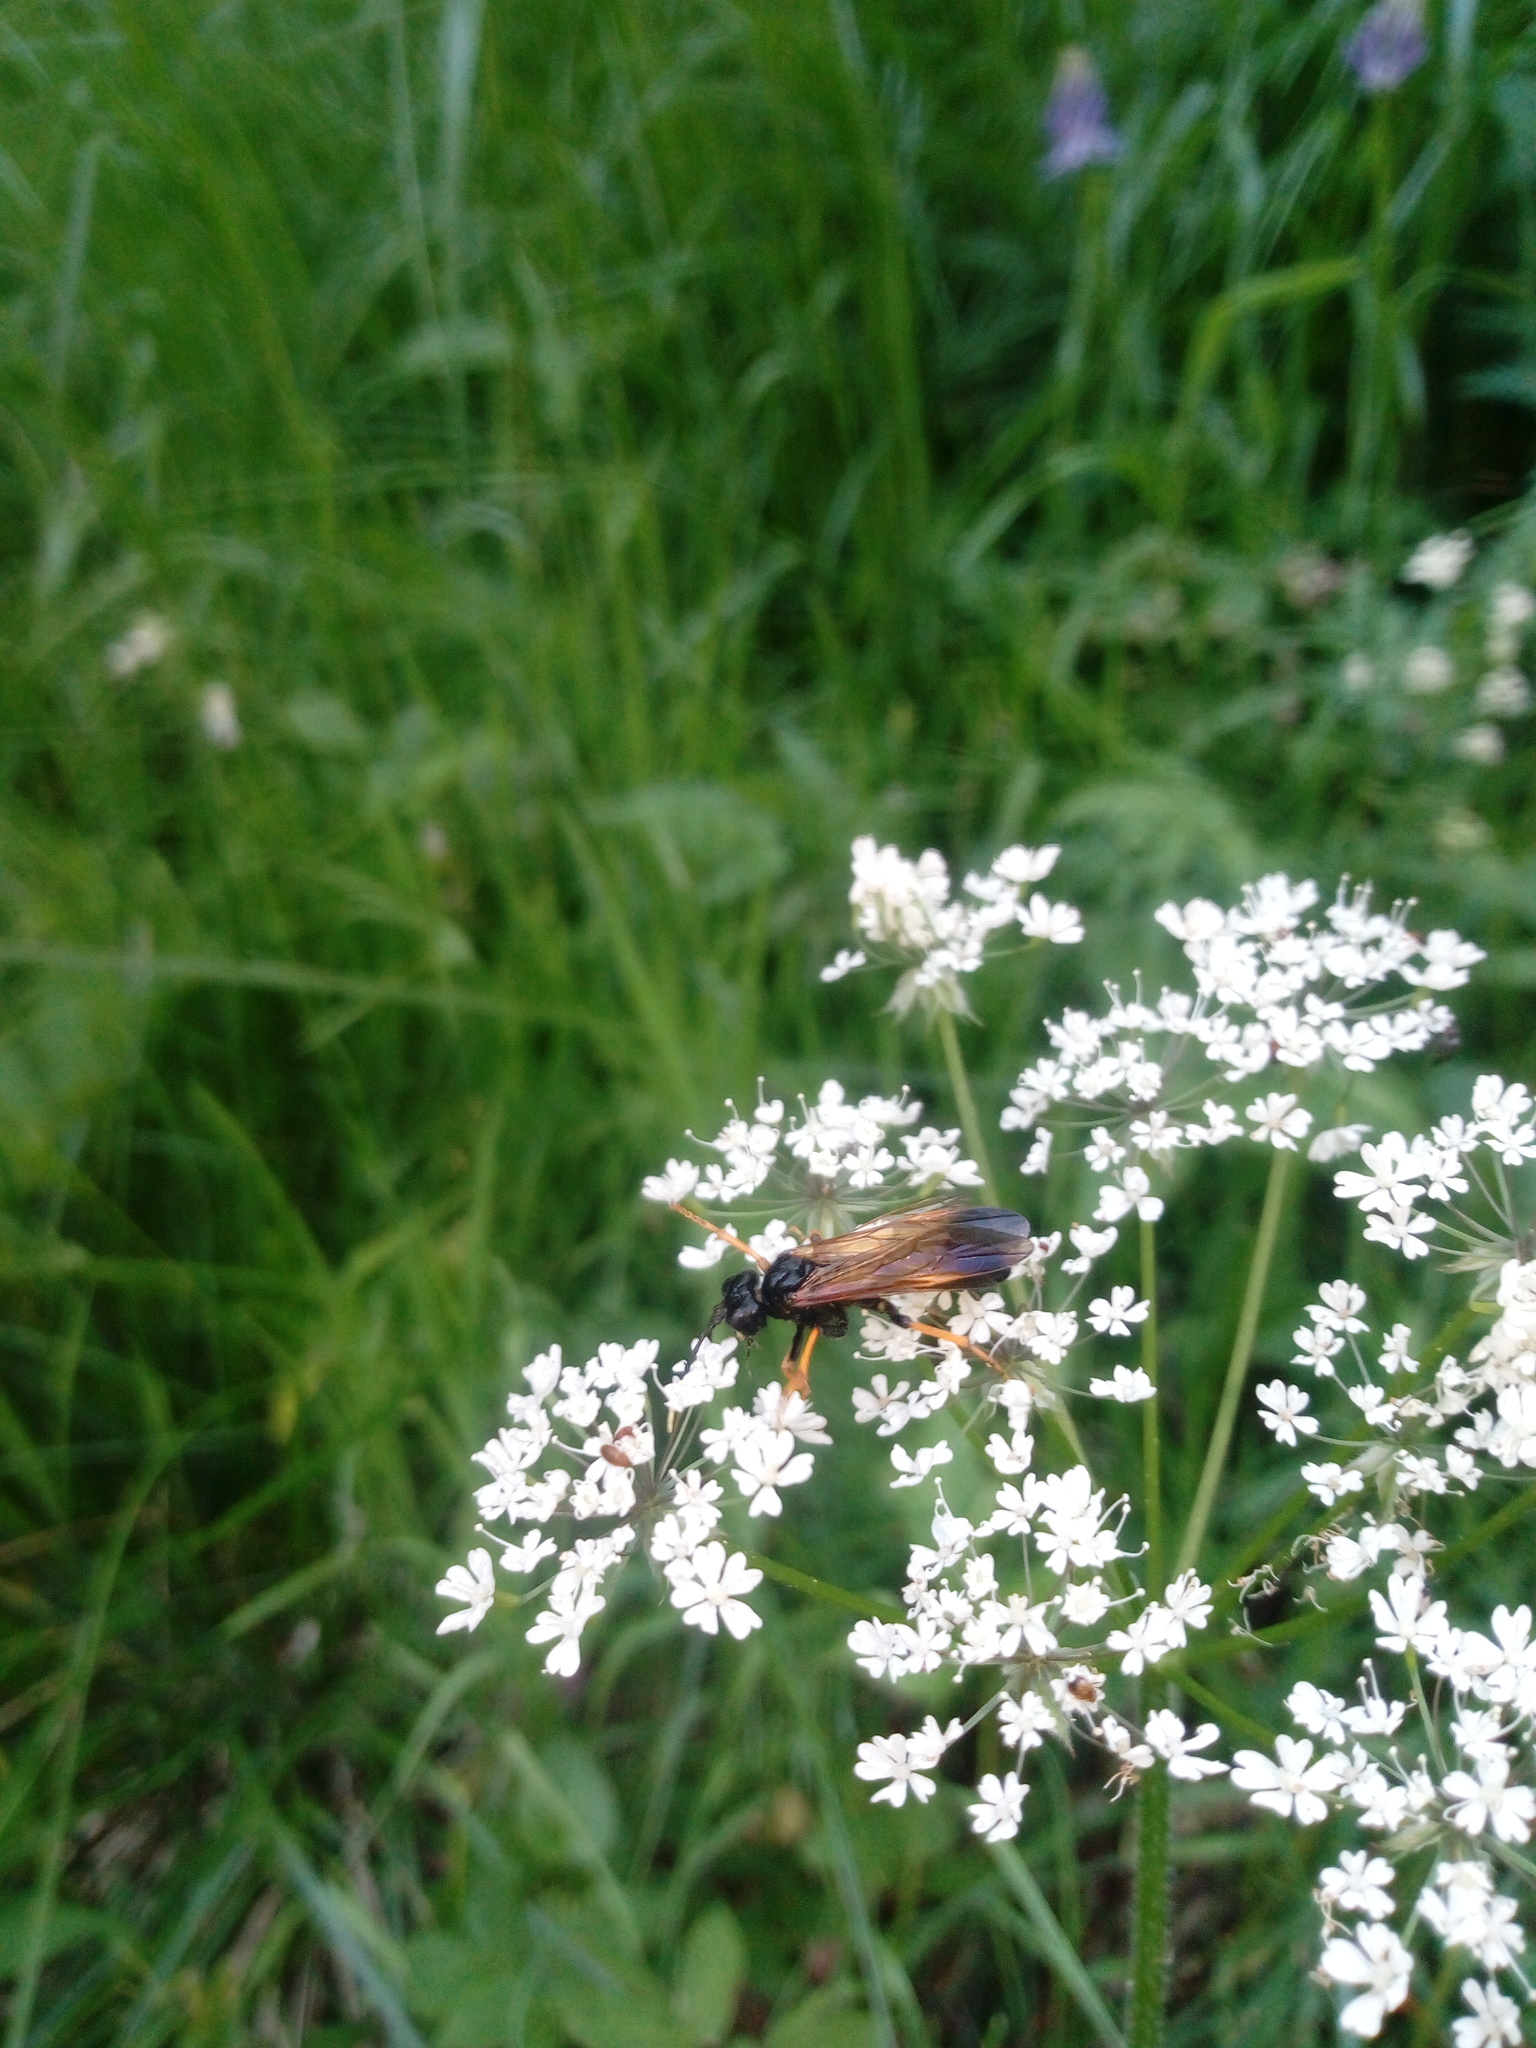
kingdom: Animalia
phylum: Arthropoda
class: Insecta
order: Hymenoptera
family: Tenthredinidae
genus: Tenthredo
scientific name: Tenthredo crassa
